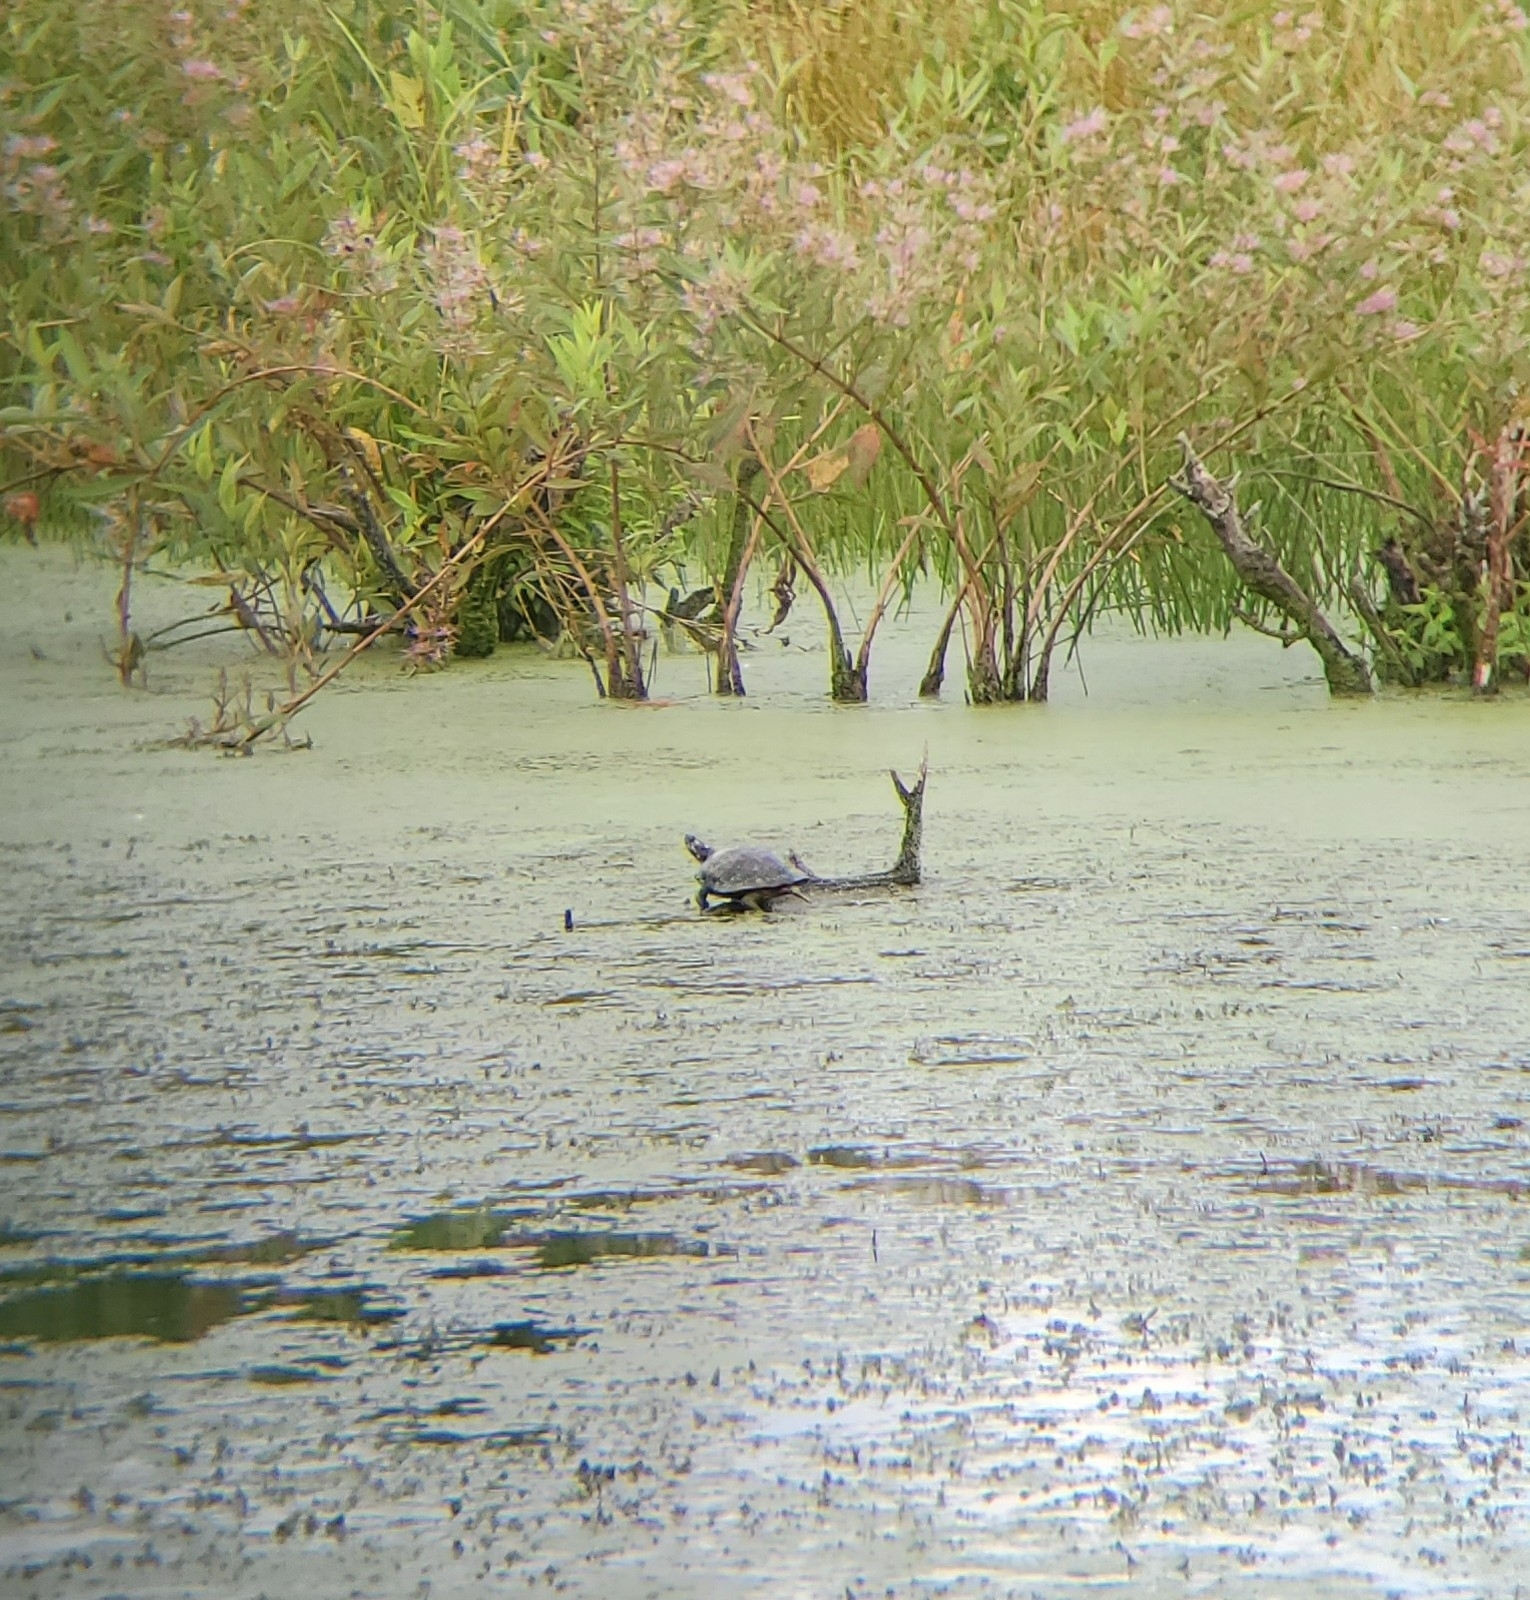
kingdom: Animalia
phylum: Chordata
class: Testudines
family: Emydidae
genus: Chrysemys
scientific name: Chrysemys picta
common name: Painted turtle
